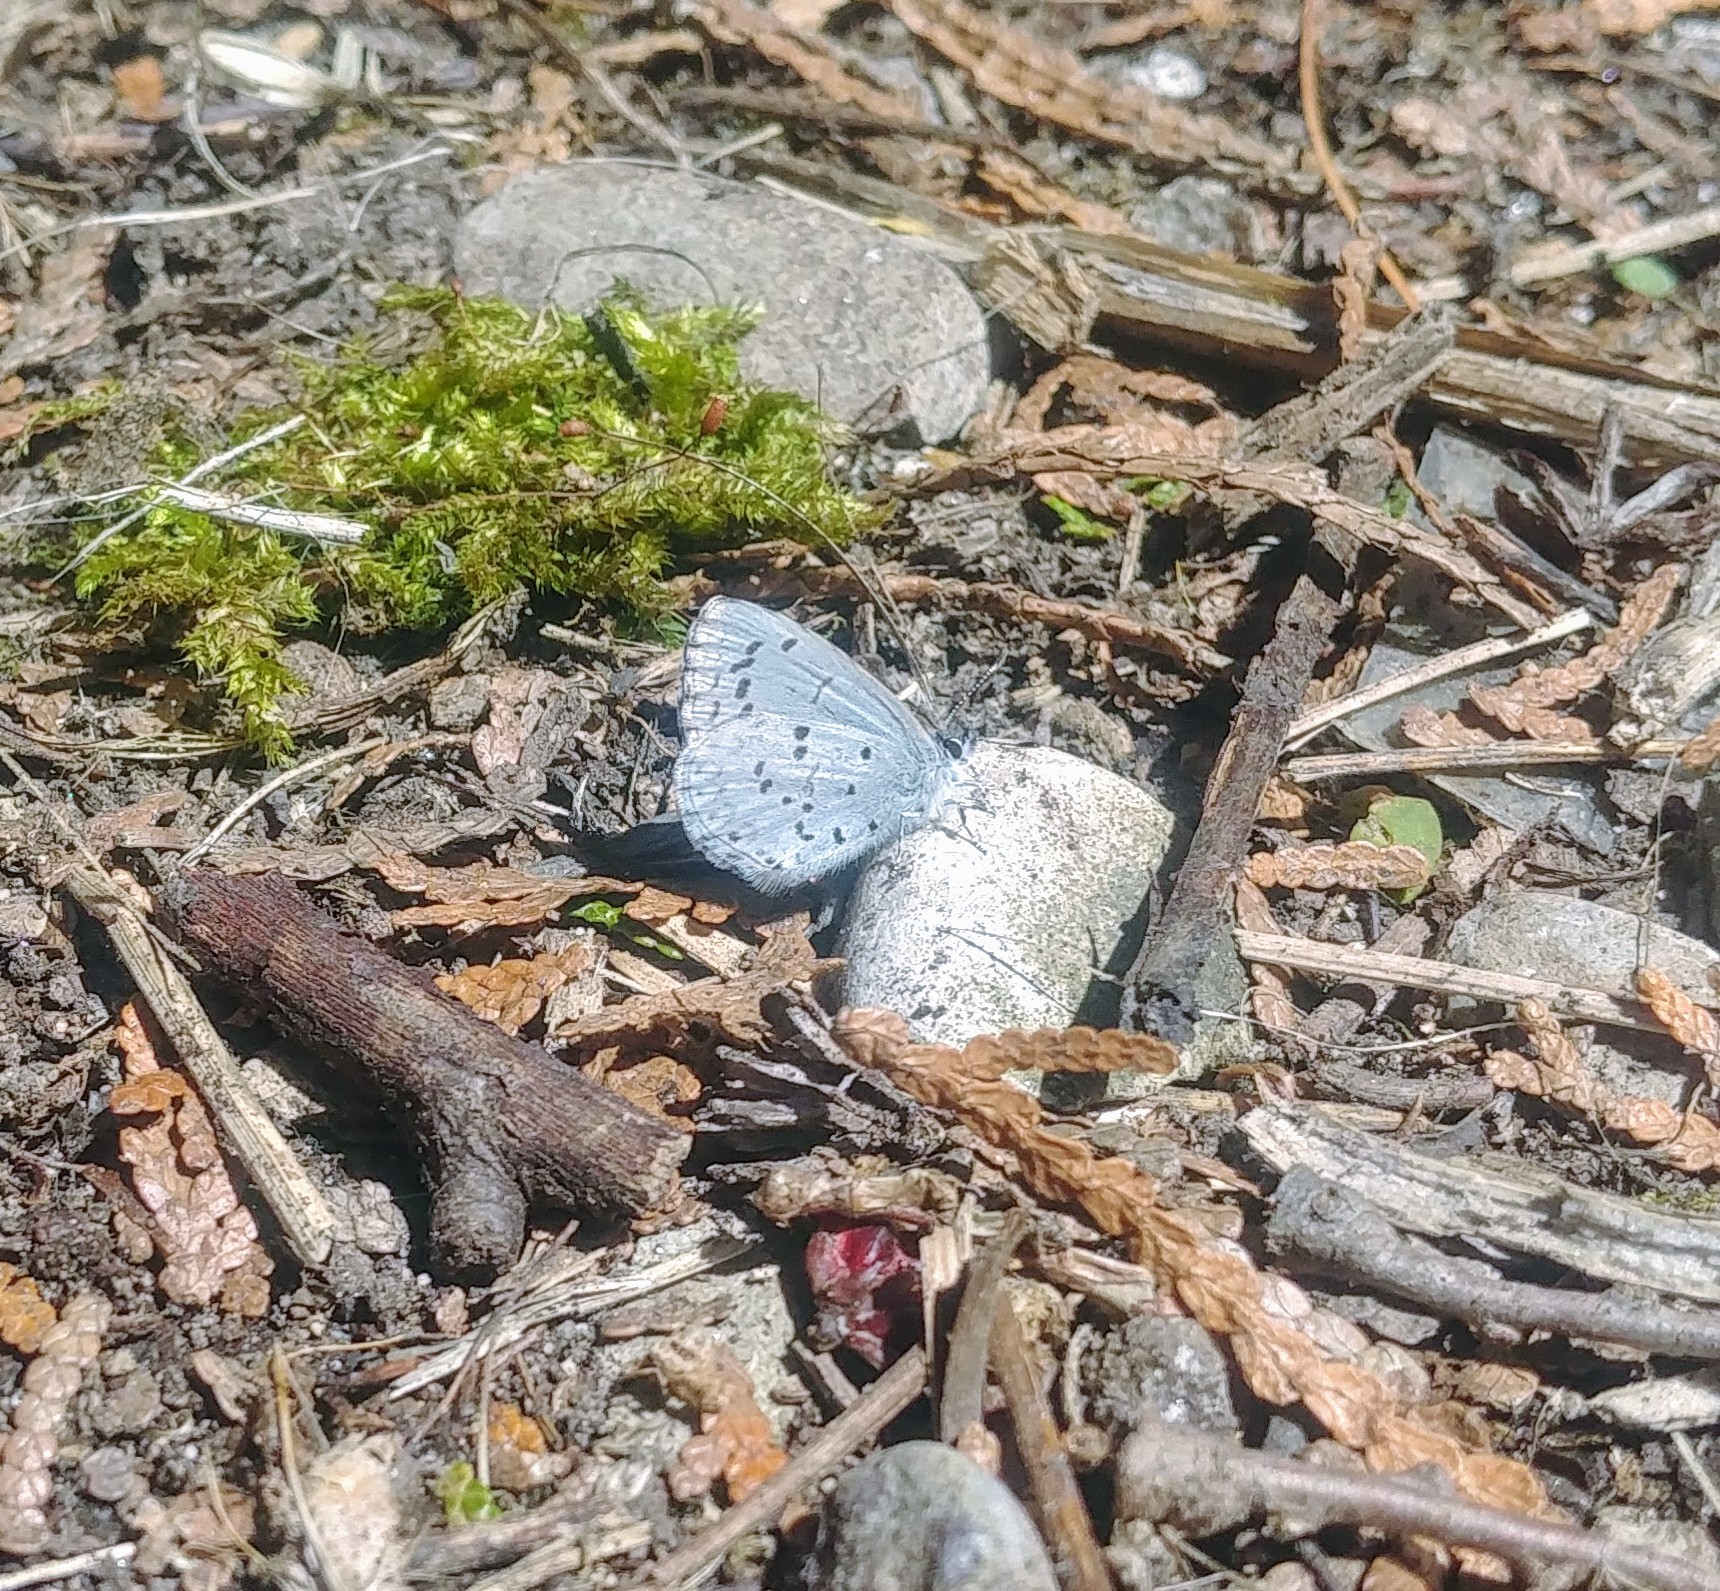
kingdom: Animalia
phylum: Arthropoda
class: Insecta
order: Lepidoptera
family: Lycaenidae
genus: Celastrina
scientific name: Celastrina
